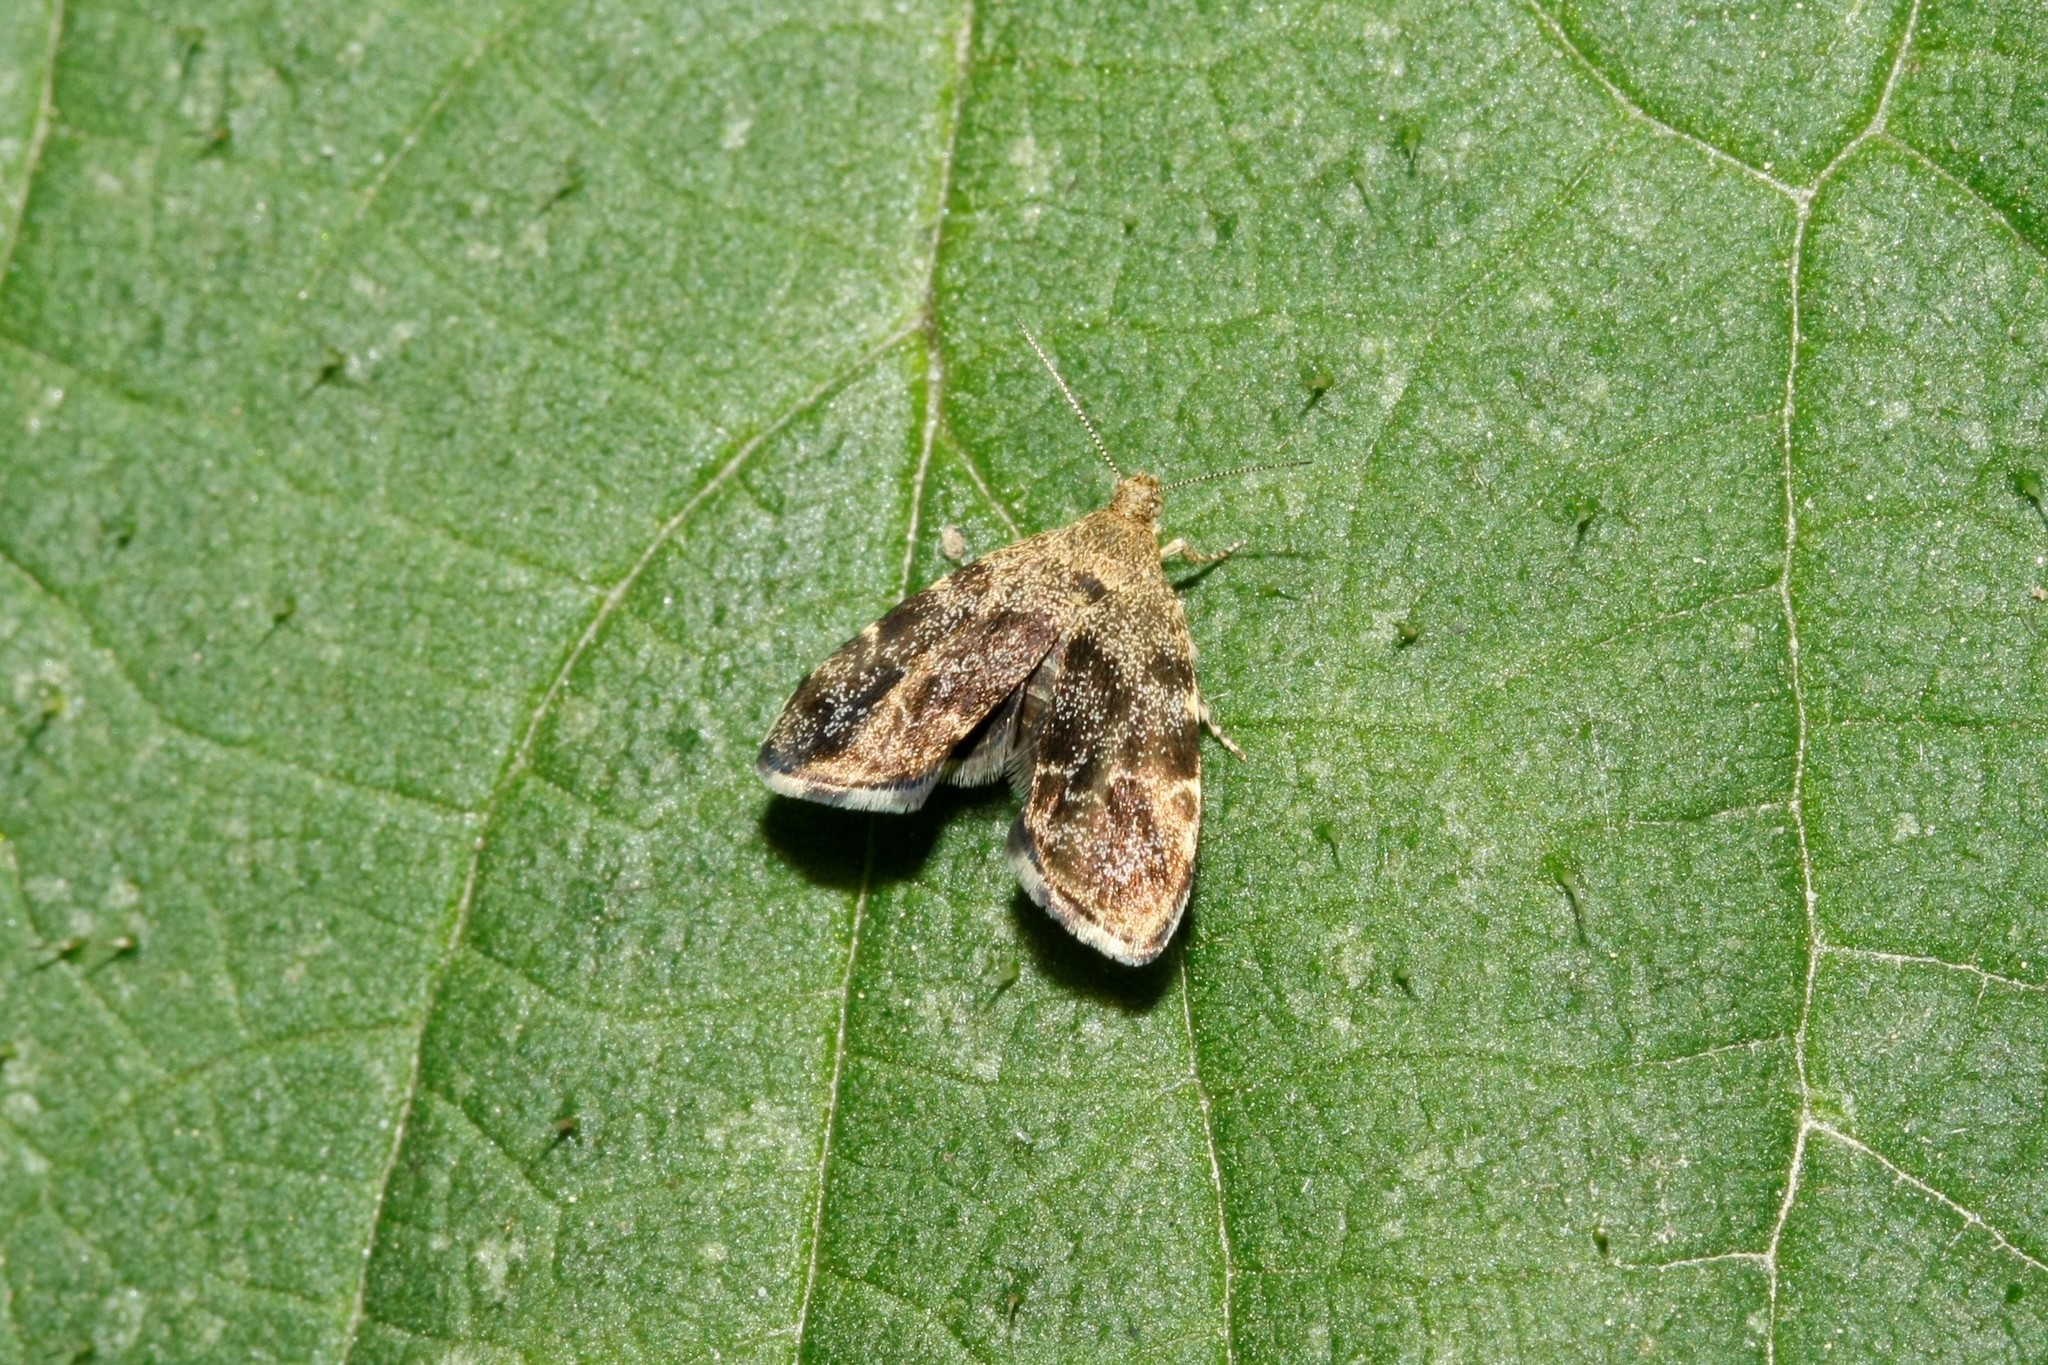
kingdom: Animalia
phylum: Arthropoda
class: Insecta
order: Lepidoptera
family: Choreutidae
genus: Anthophila
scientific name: Anthophila fabriciana
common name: Nettle-tap
